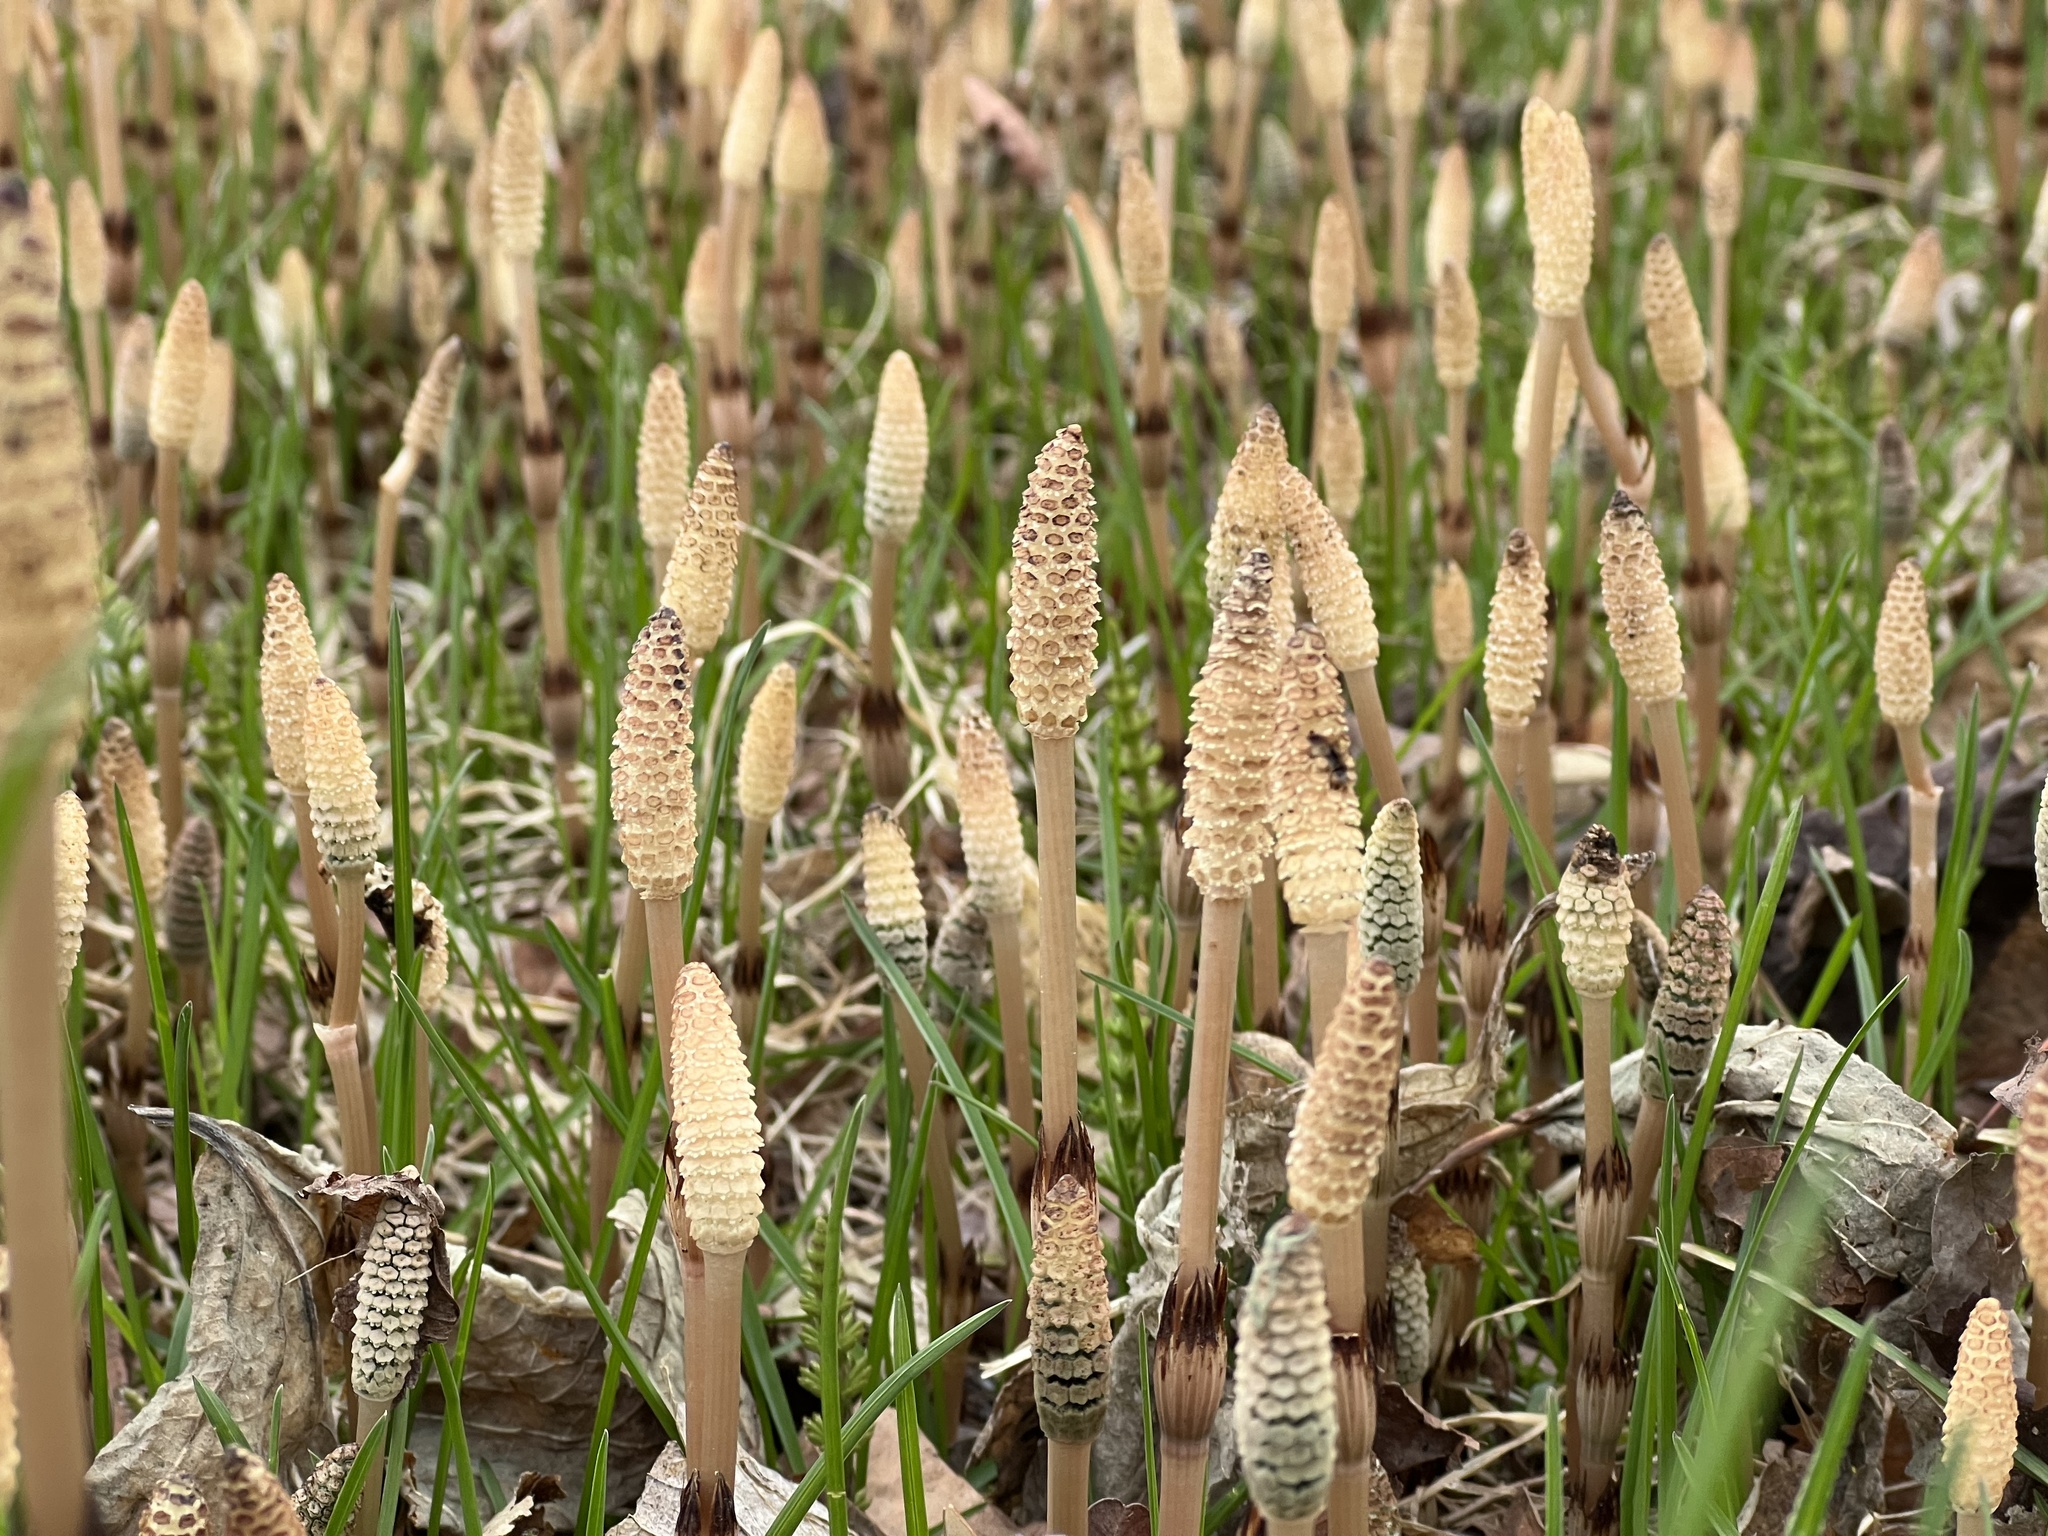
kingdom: Plantae
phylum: Tracheophyta
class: Polypodiopsida
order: Equisetales
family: Equisetaceae
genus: Equisetum
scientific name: Equisetum arvense
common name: Field horsetail
